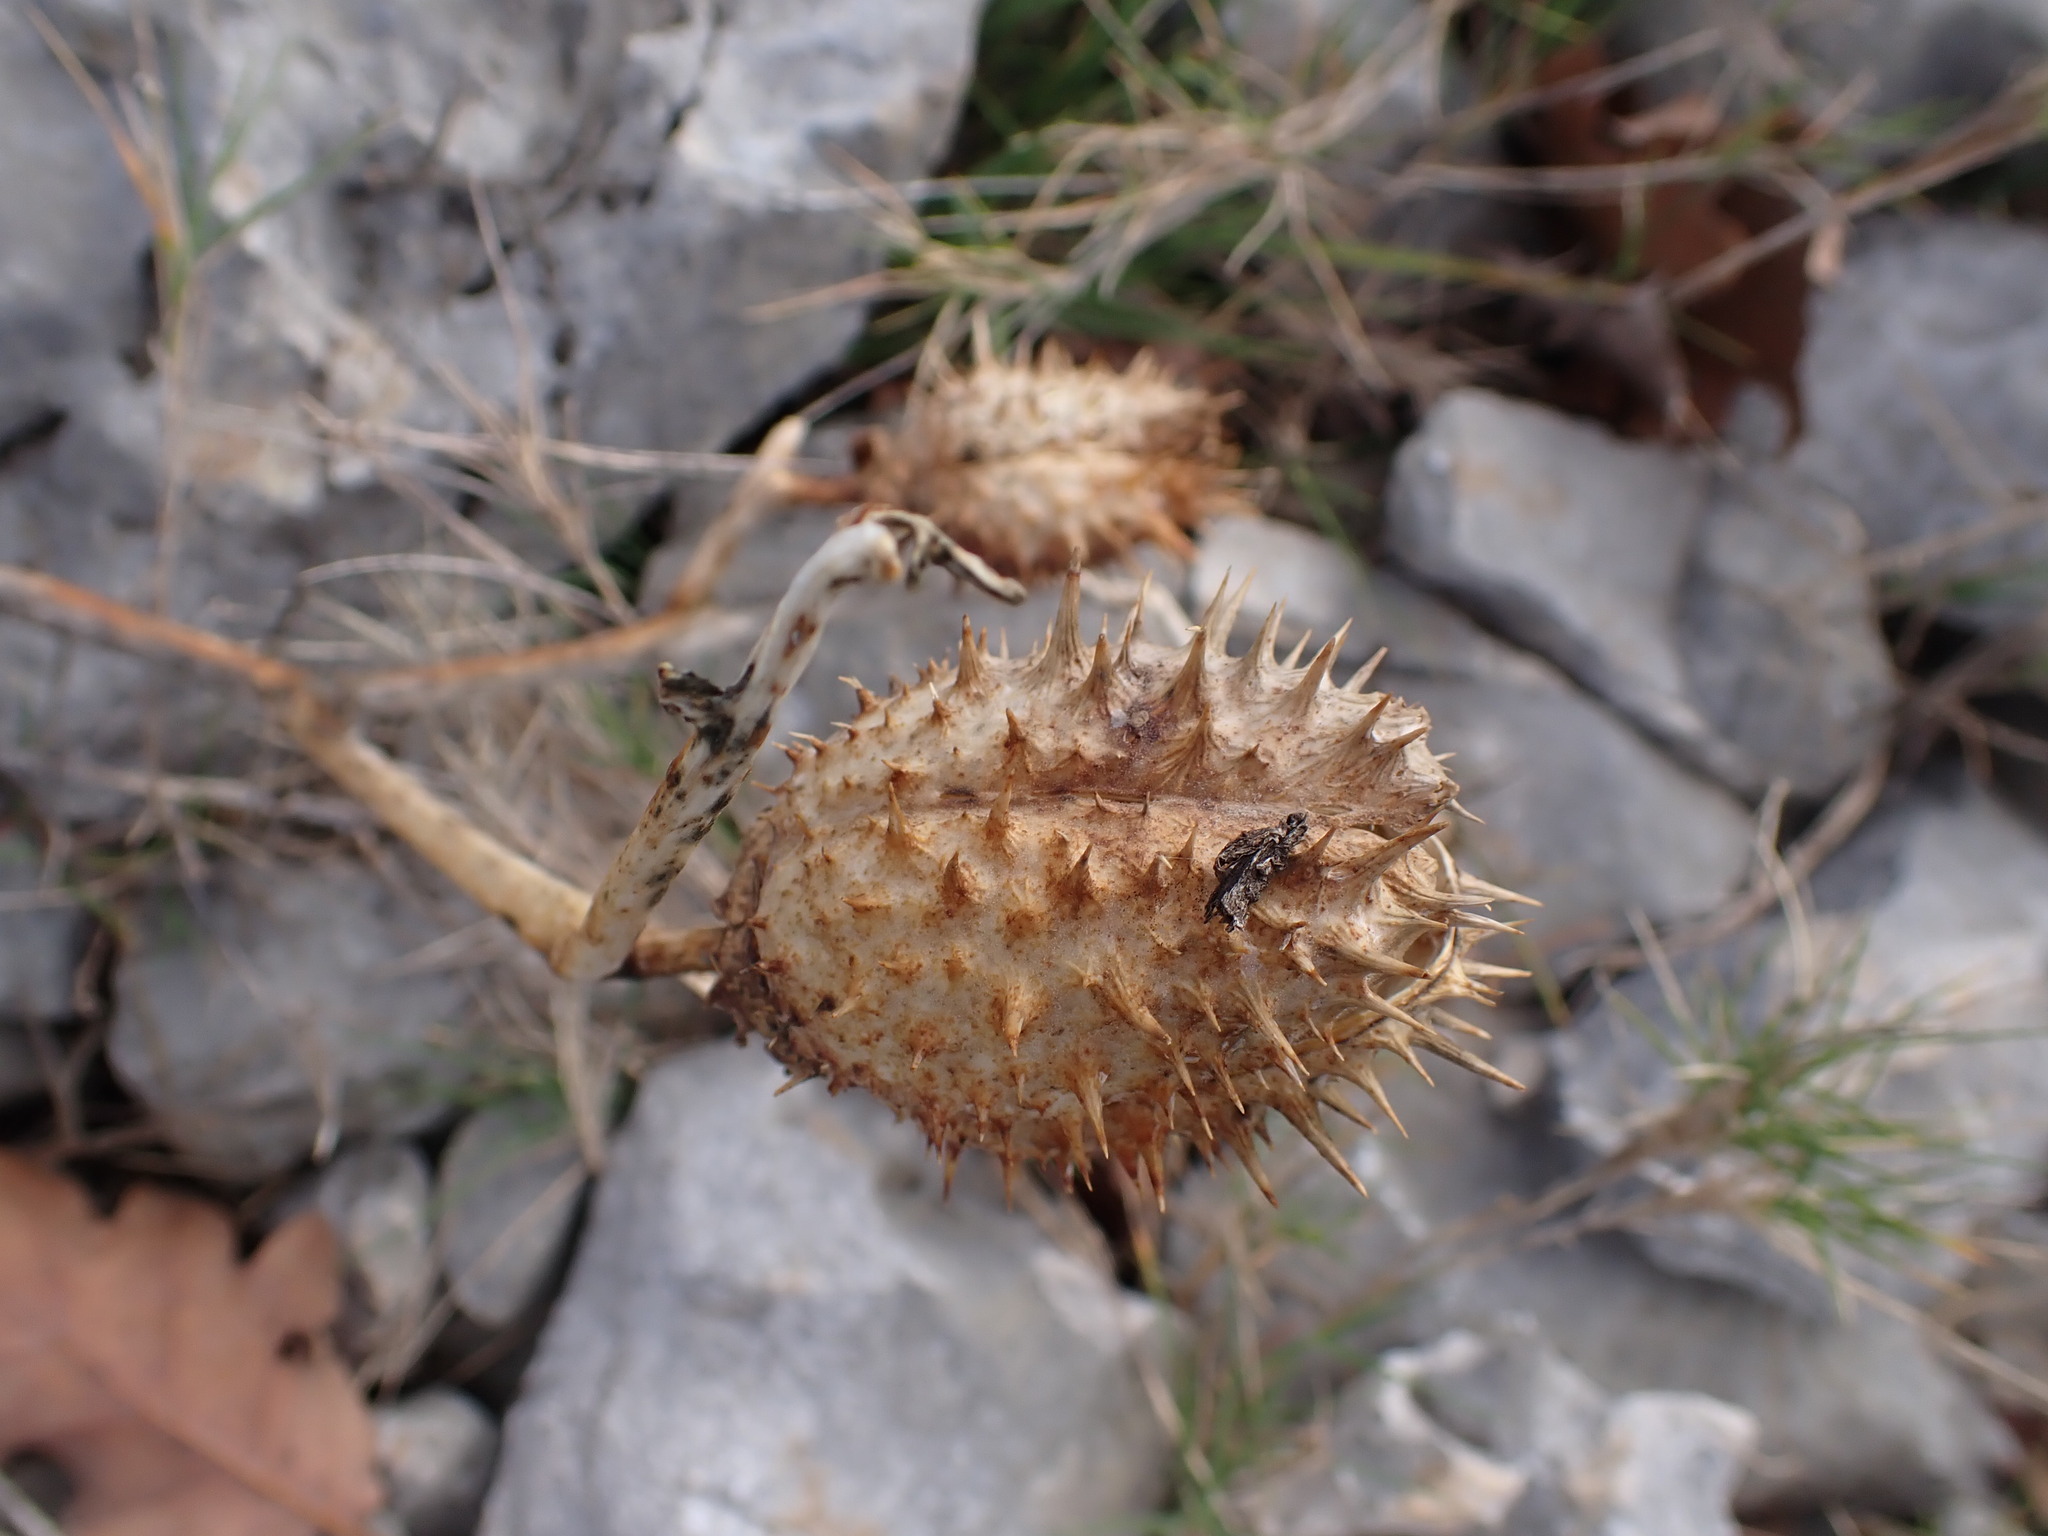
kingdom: Plantae
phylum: Tracheophyta
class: Magnoliopsida
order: Solanales
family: Solanaceae
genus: Datura
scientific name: Datura stramonium
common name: Thorn-apple
